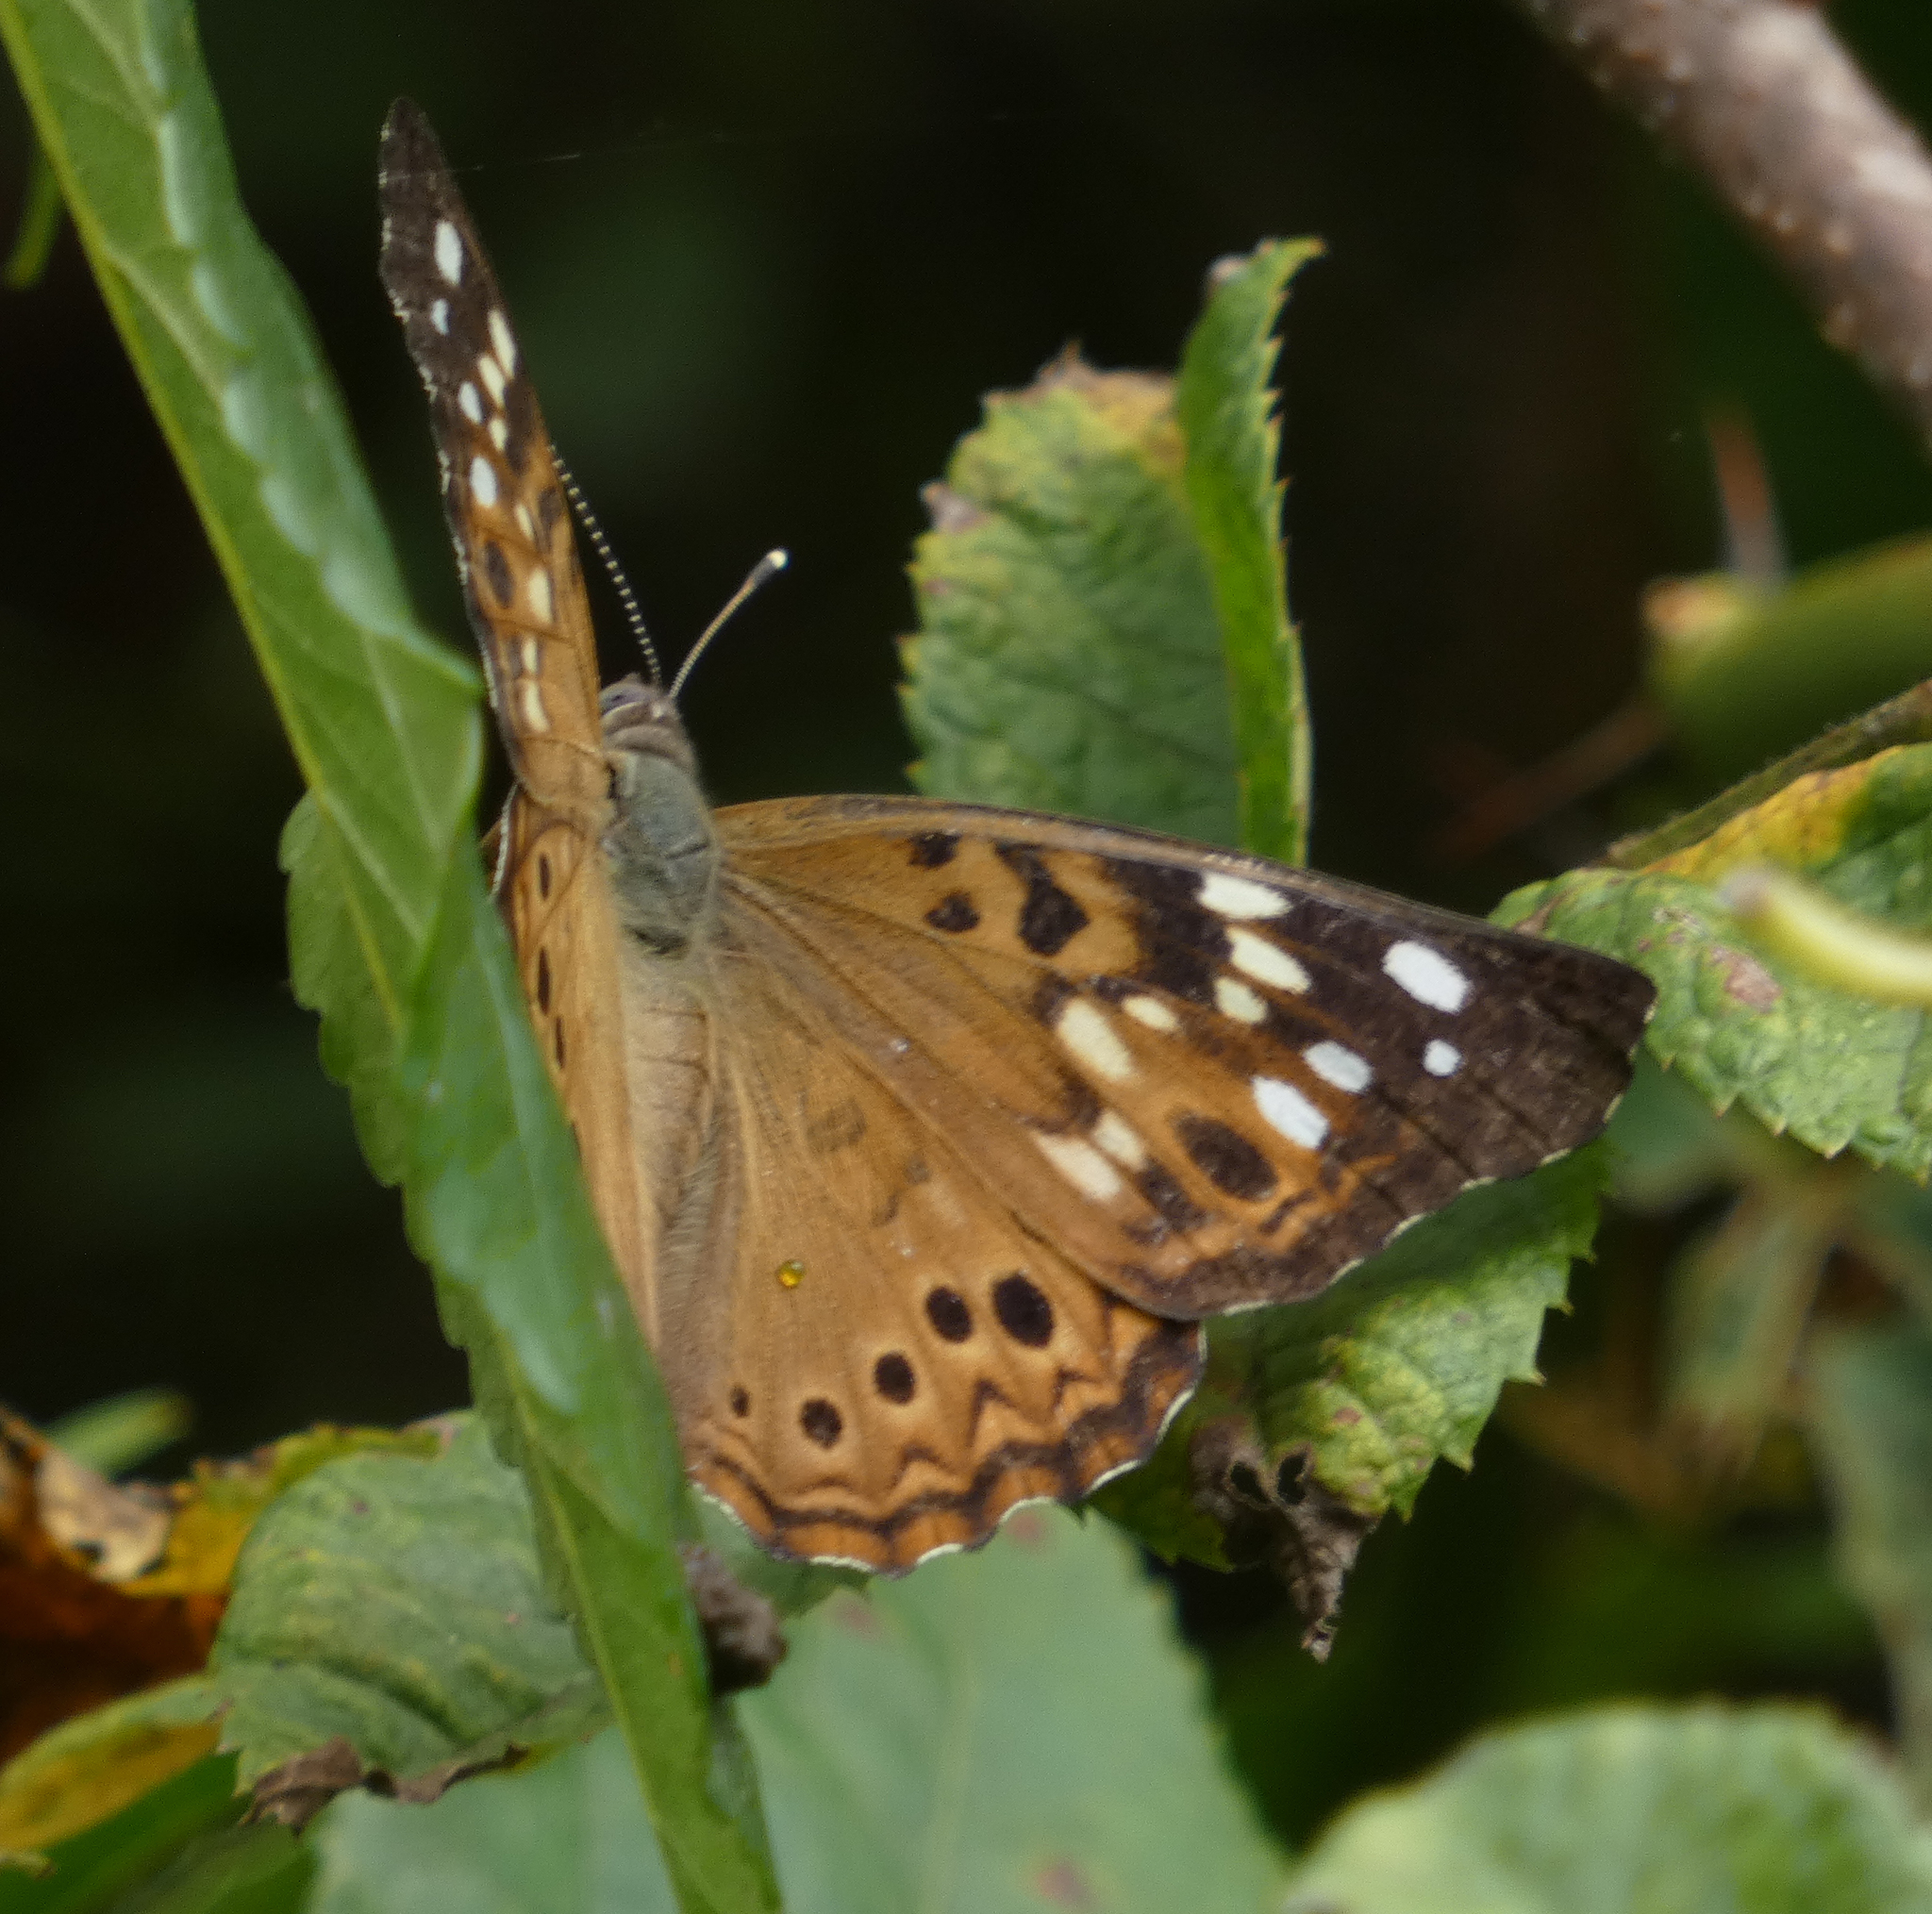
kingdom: Animalia
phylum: Arthropoda
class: Insecta
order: Lepidoptera
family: Nymphalidae
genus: Asterocampa
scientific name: Asterocampa celtis
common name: Hackberry emperor
